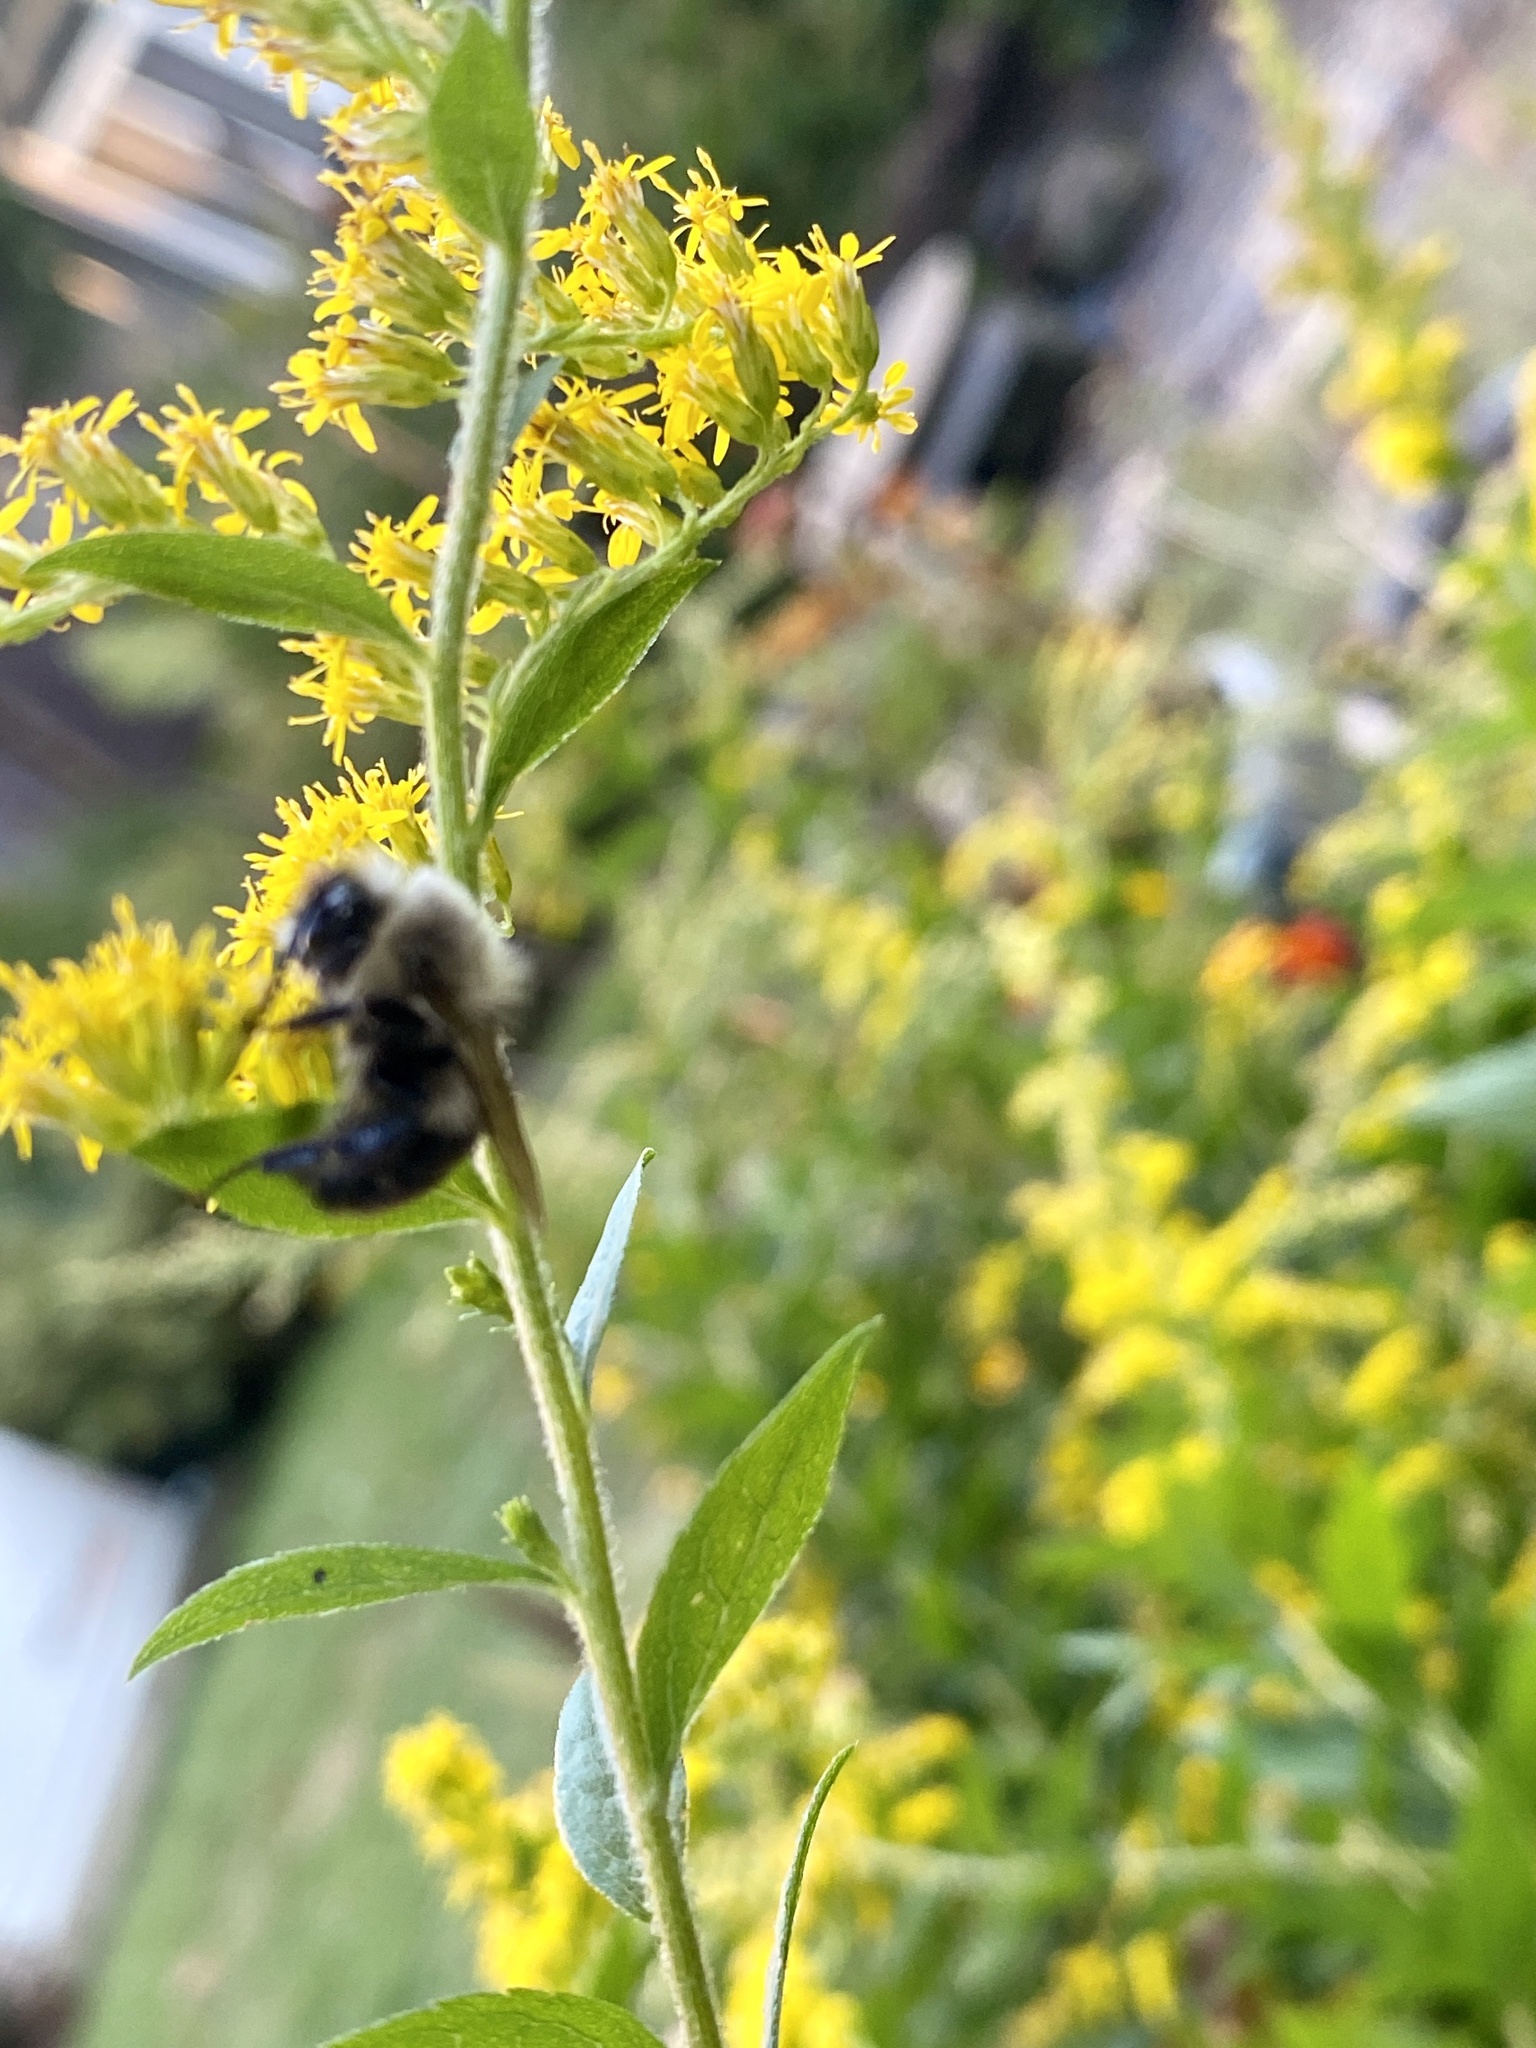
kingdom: Animalia
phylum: Arthropoda
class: Insecta
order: Hymenoptera
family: Apidae
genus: Bombus
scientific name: Bombus impatiens
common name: Common eastern bumble bee
